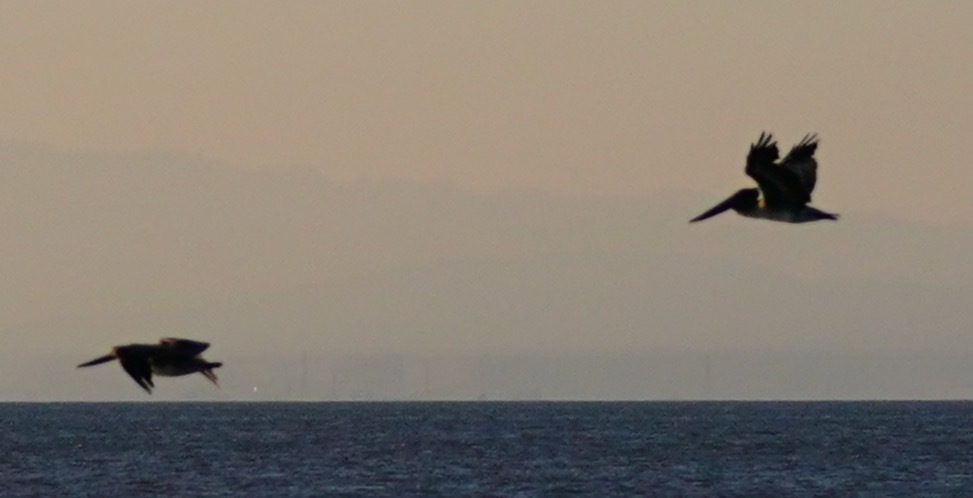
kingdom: Animalia
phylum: Chordata
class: Aves
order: Pelecaniformes
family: Pelecanidae
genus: Pelecanus
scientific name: Pelecanus occidentalis
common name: Brown pelican
